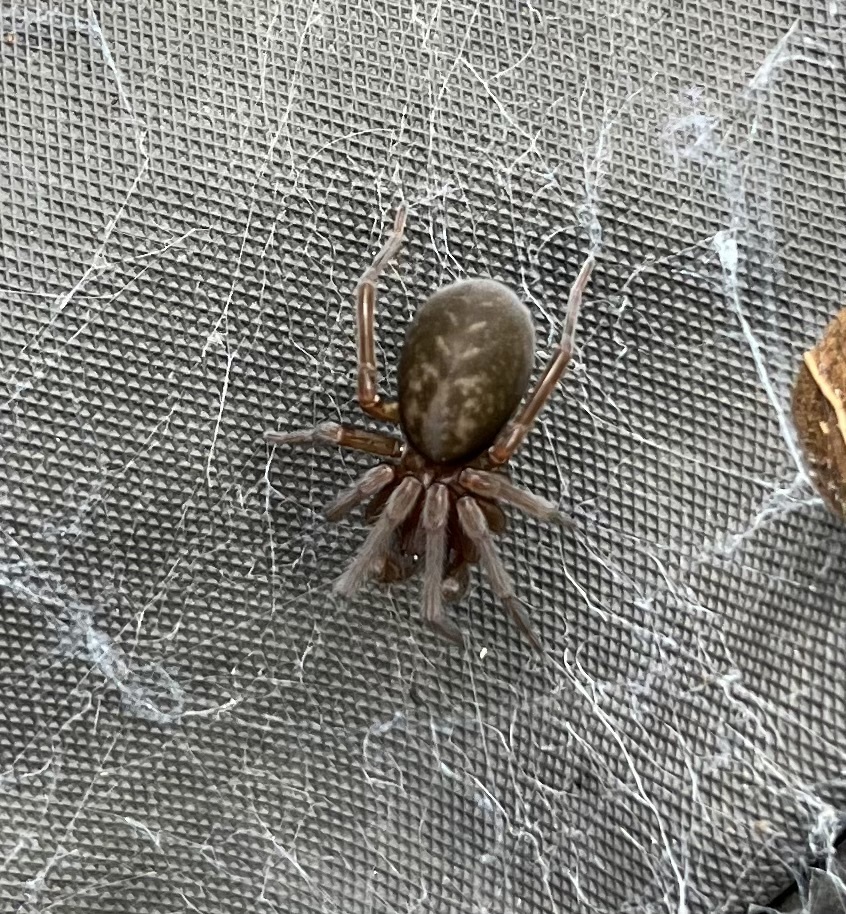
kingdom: Animalia
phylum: Arthropoda
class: Arachnida
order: Araneae
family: Amaurobiidae
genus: Amaurobius
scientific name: Amaurobius ferox
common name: Black laceweaver
